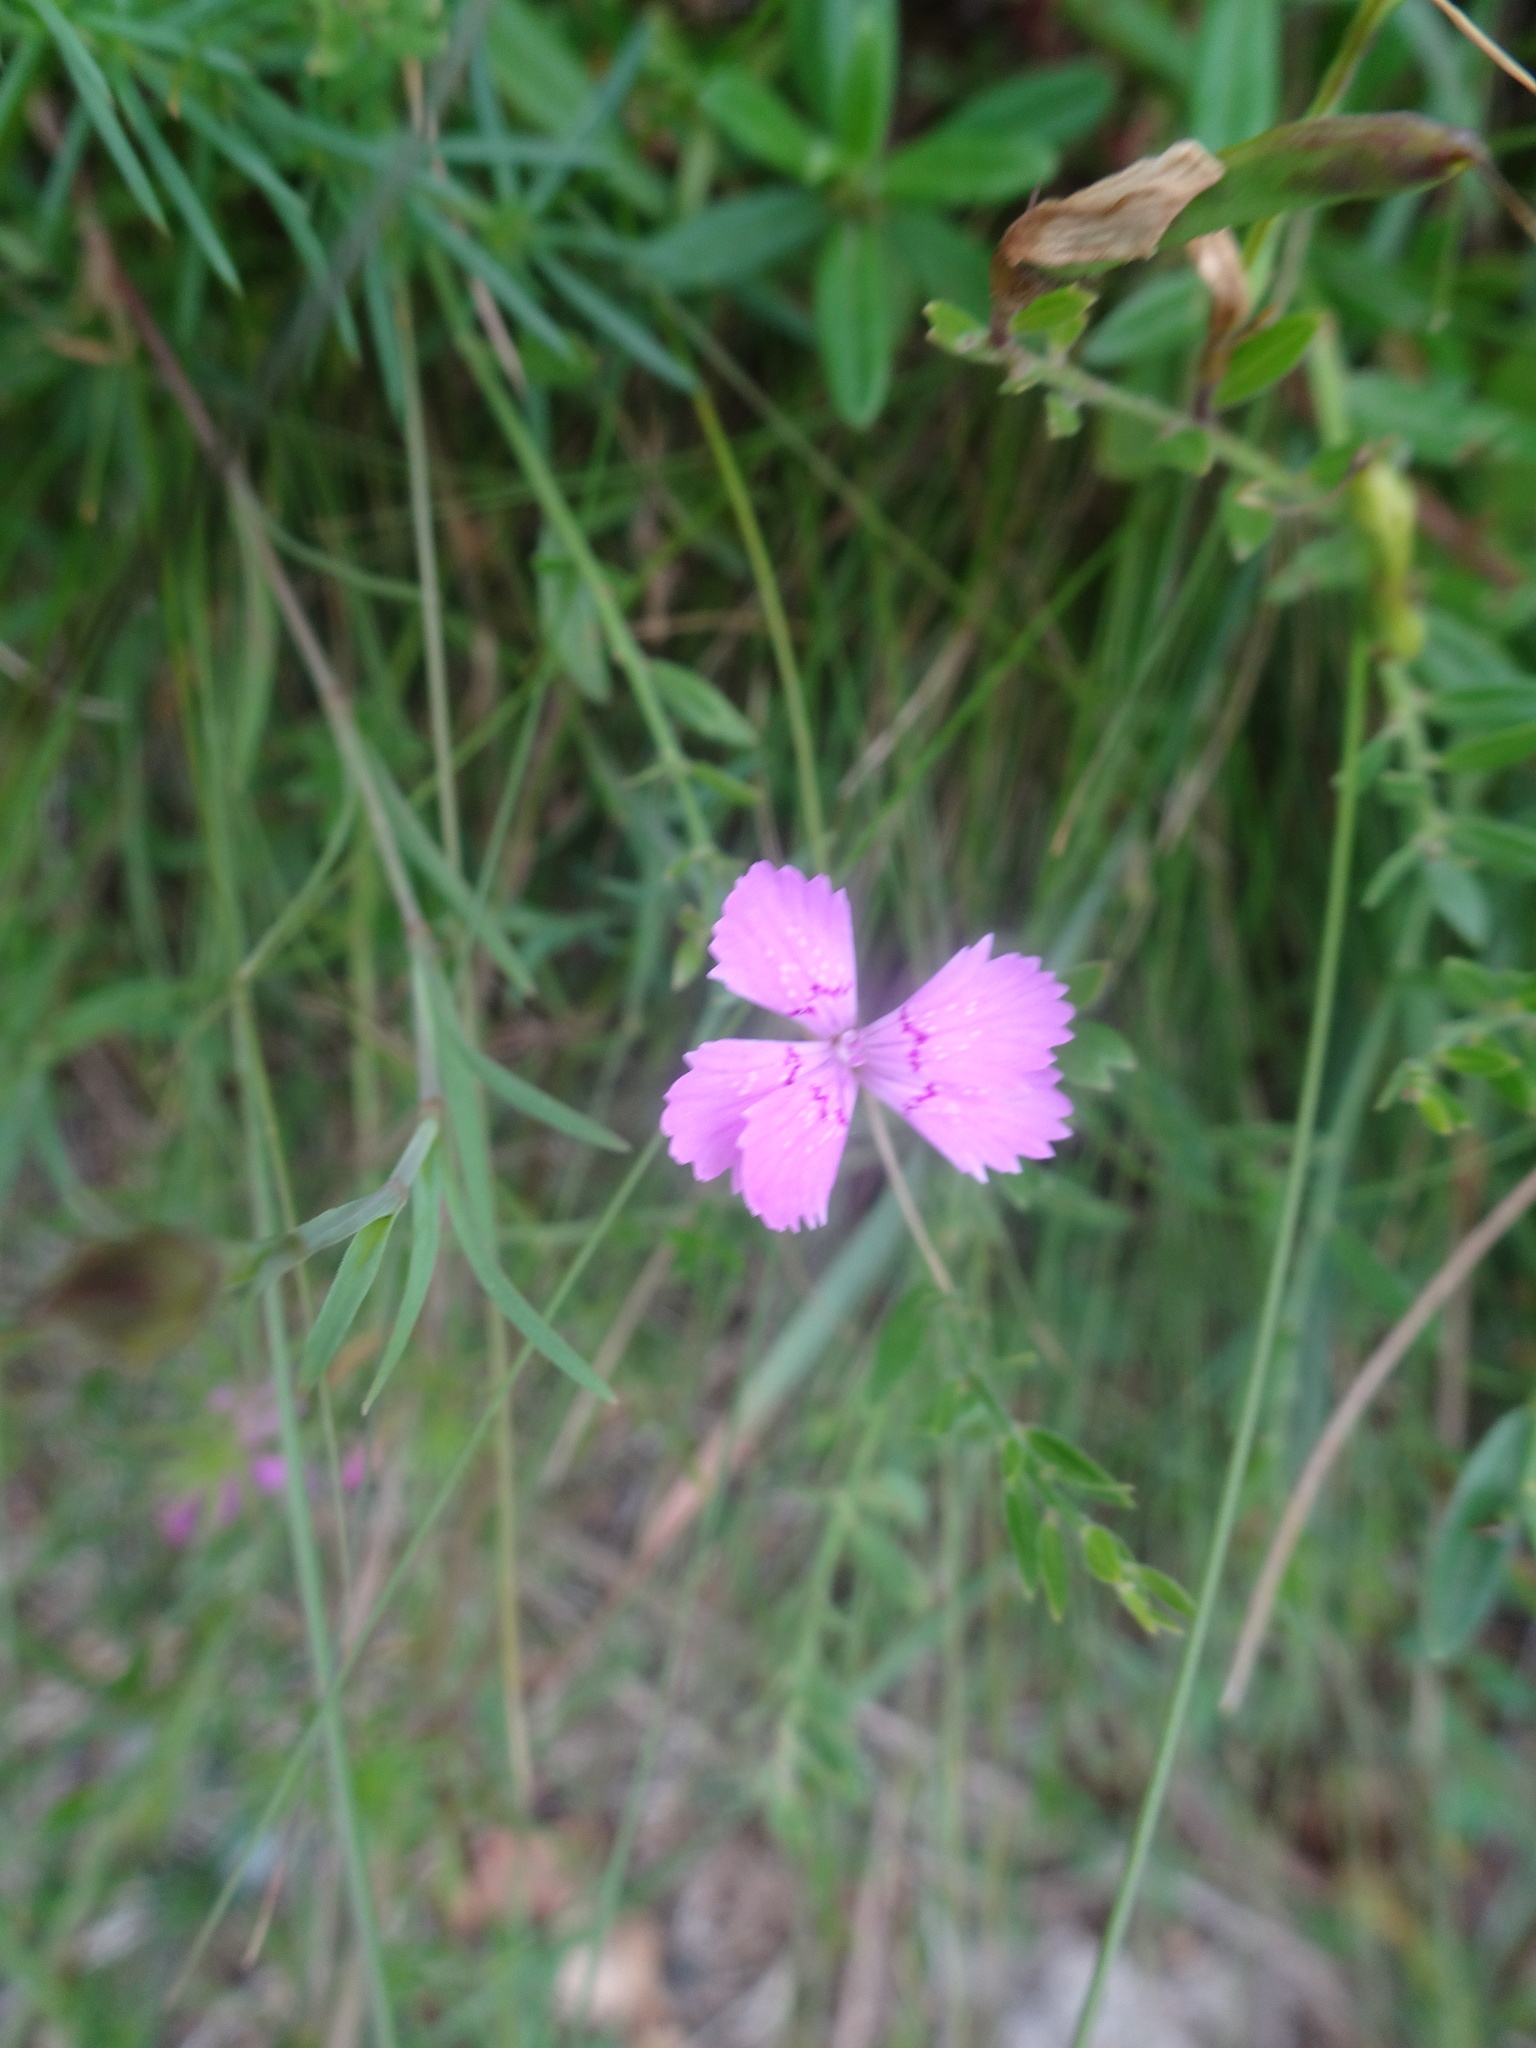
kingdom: Plantae
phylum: Tracheophyta
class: Magnoliopsida
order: Caryophyllales
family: Caryophyllaceae
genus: Dianthus
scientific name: Dianthus deltoides
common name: Maiden pink
